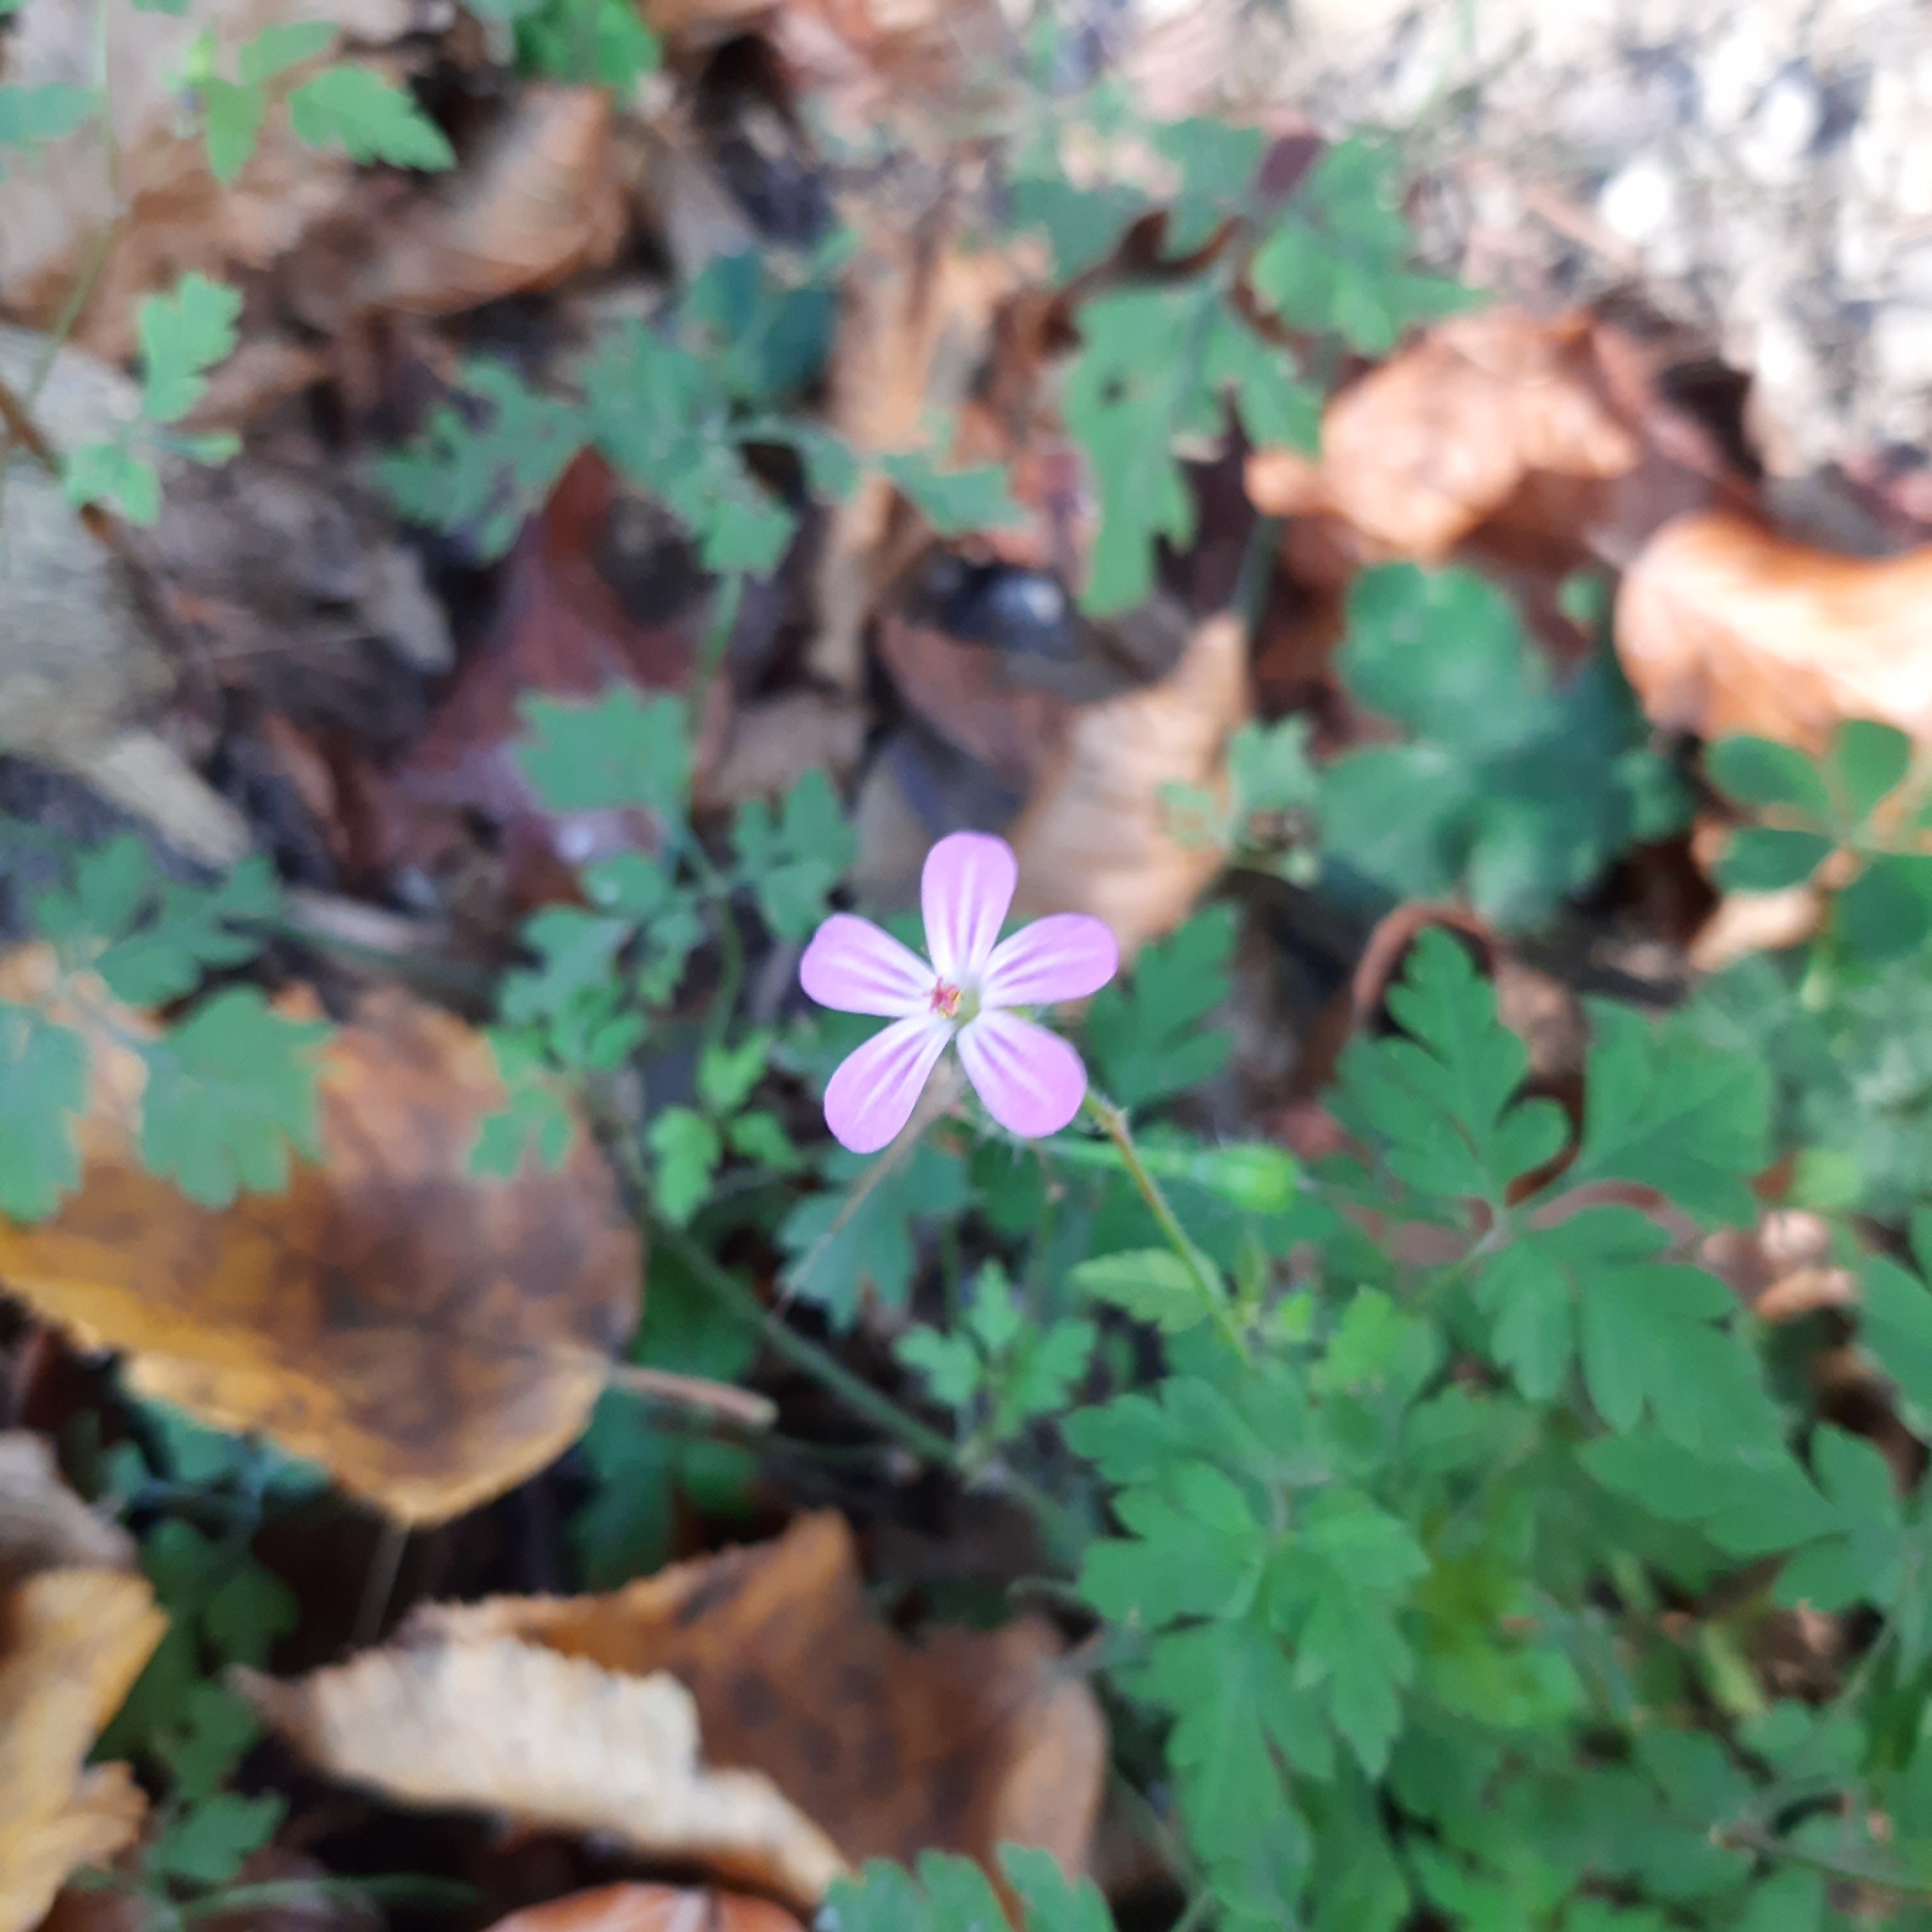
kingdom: Plantae
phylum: Tracheophyta
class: Magnoliopsida
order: Geraniales
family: Geraniaceae
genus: Geranium
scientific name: Geranium robertianum
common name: Herb-robert
